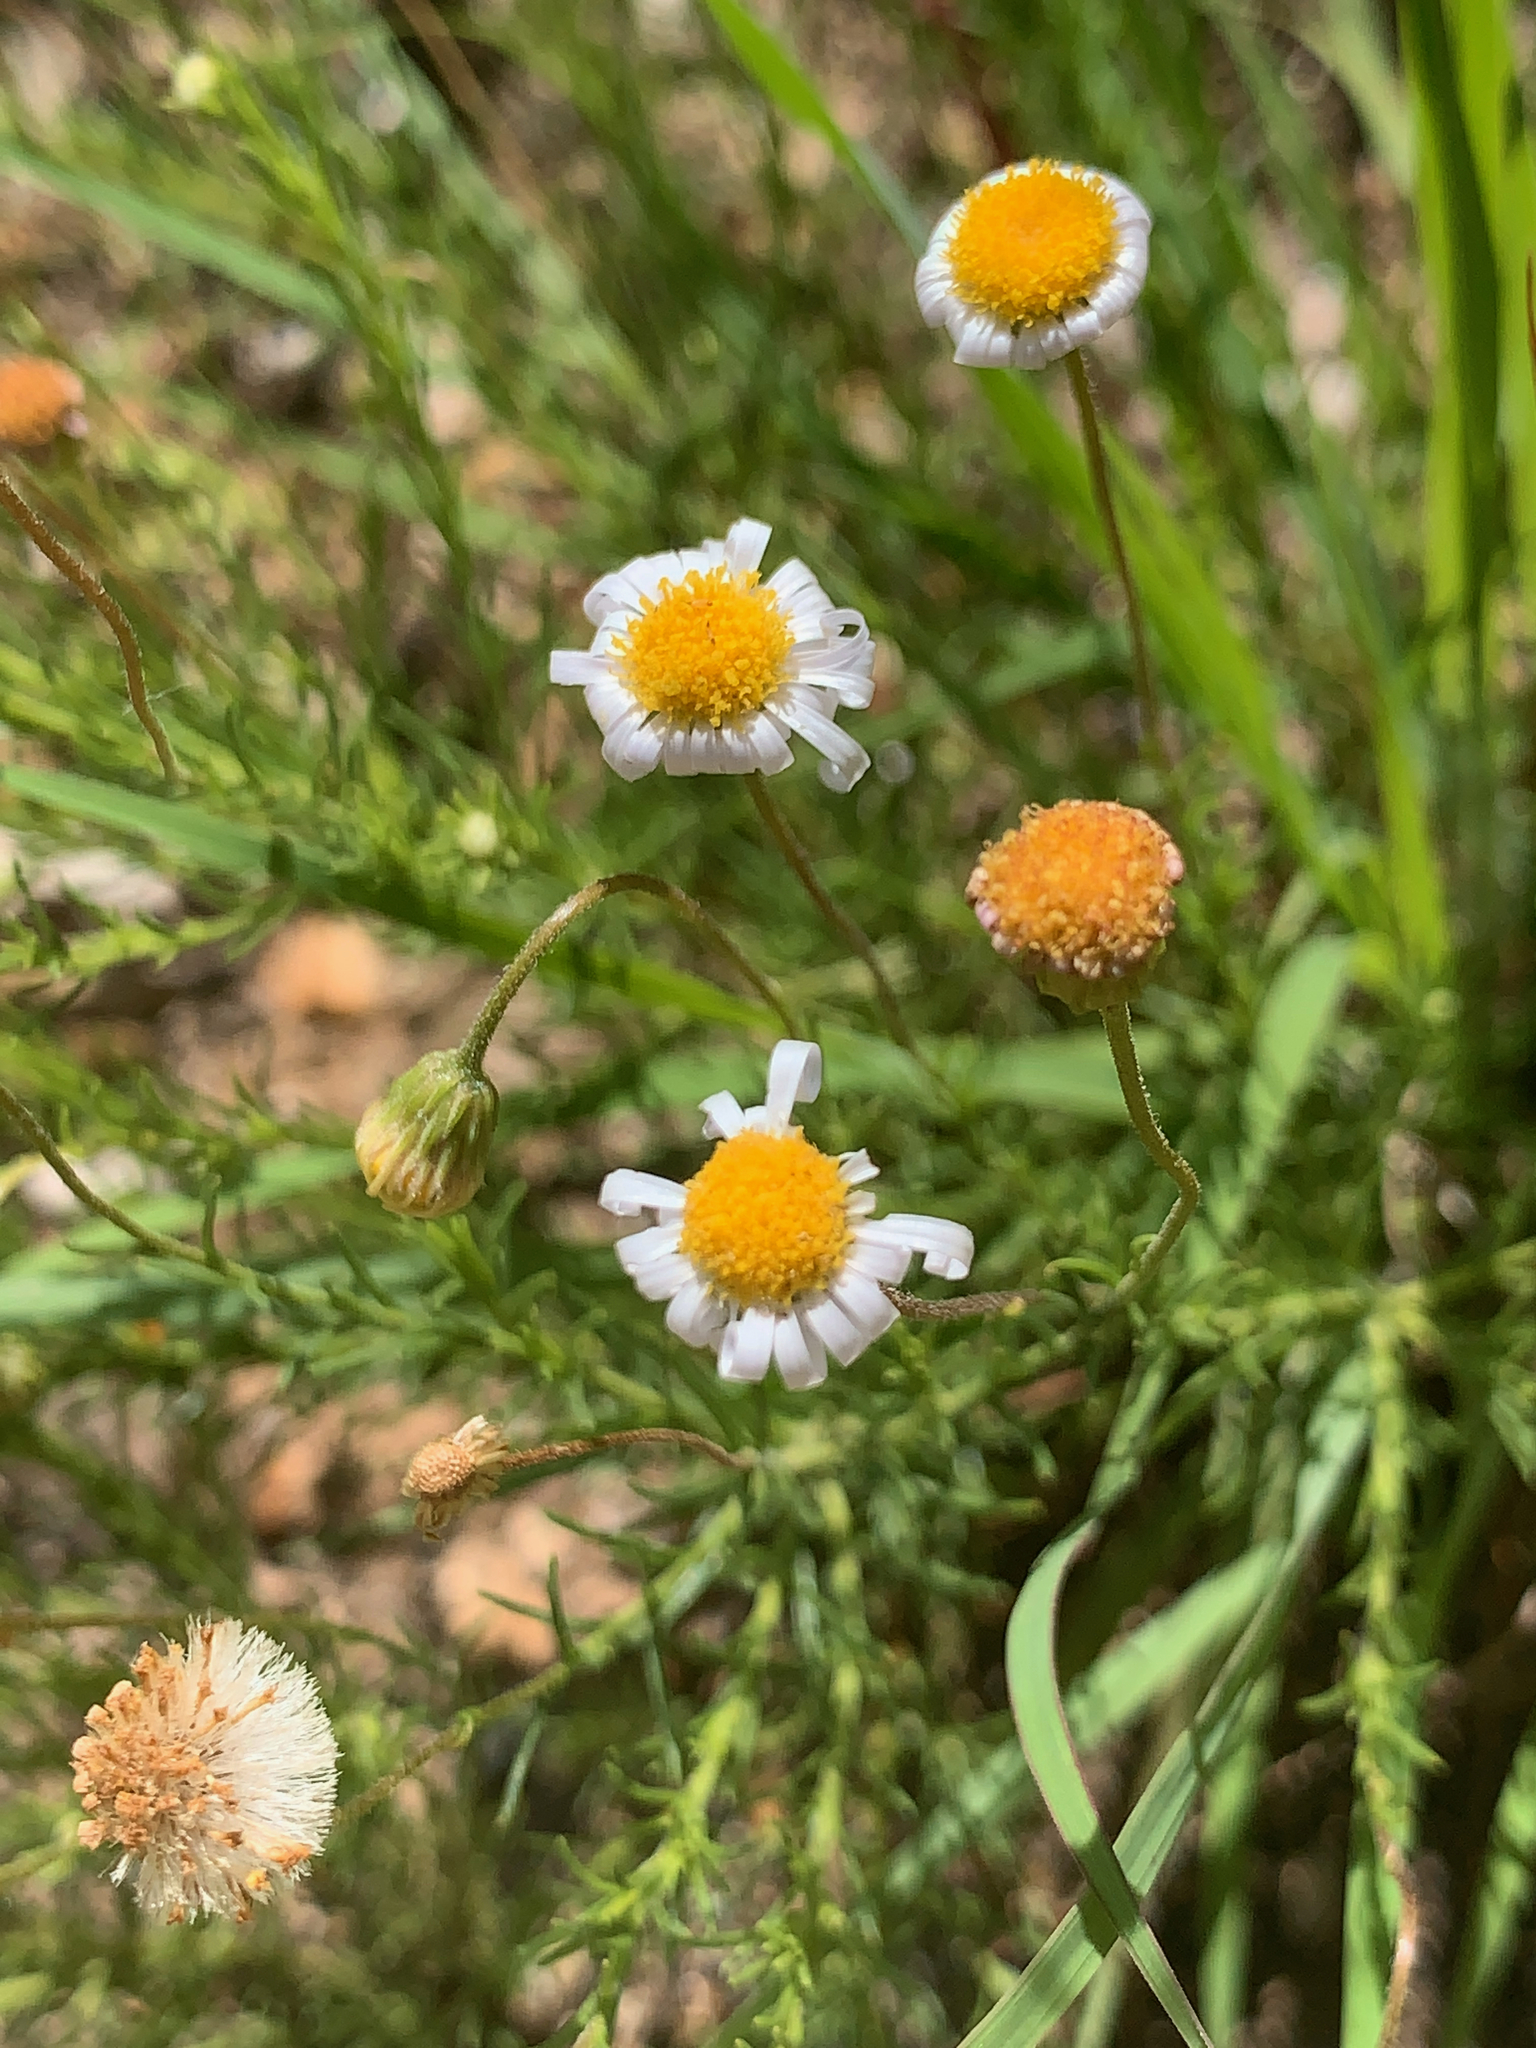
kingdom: Plantae
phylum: Tracheophyta
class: Magnoliopsida
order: Asterales
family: Asteraceae
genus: Felicia
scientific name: Felicia muricata
